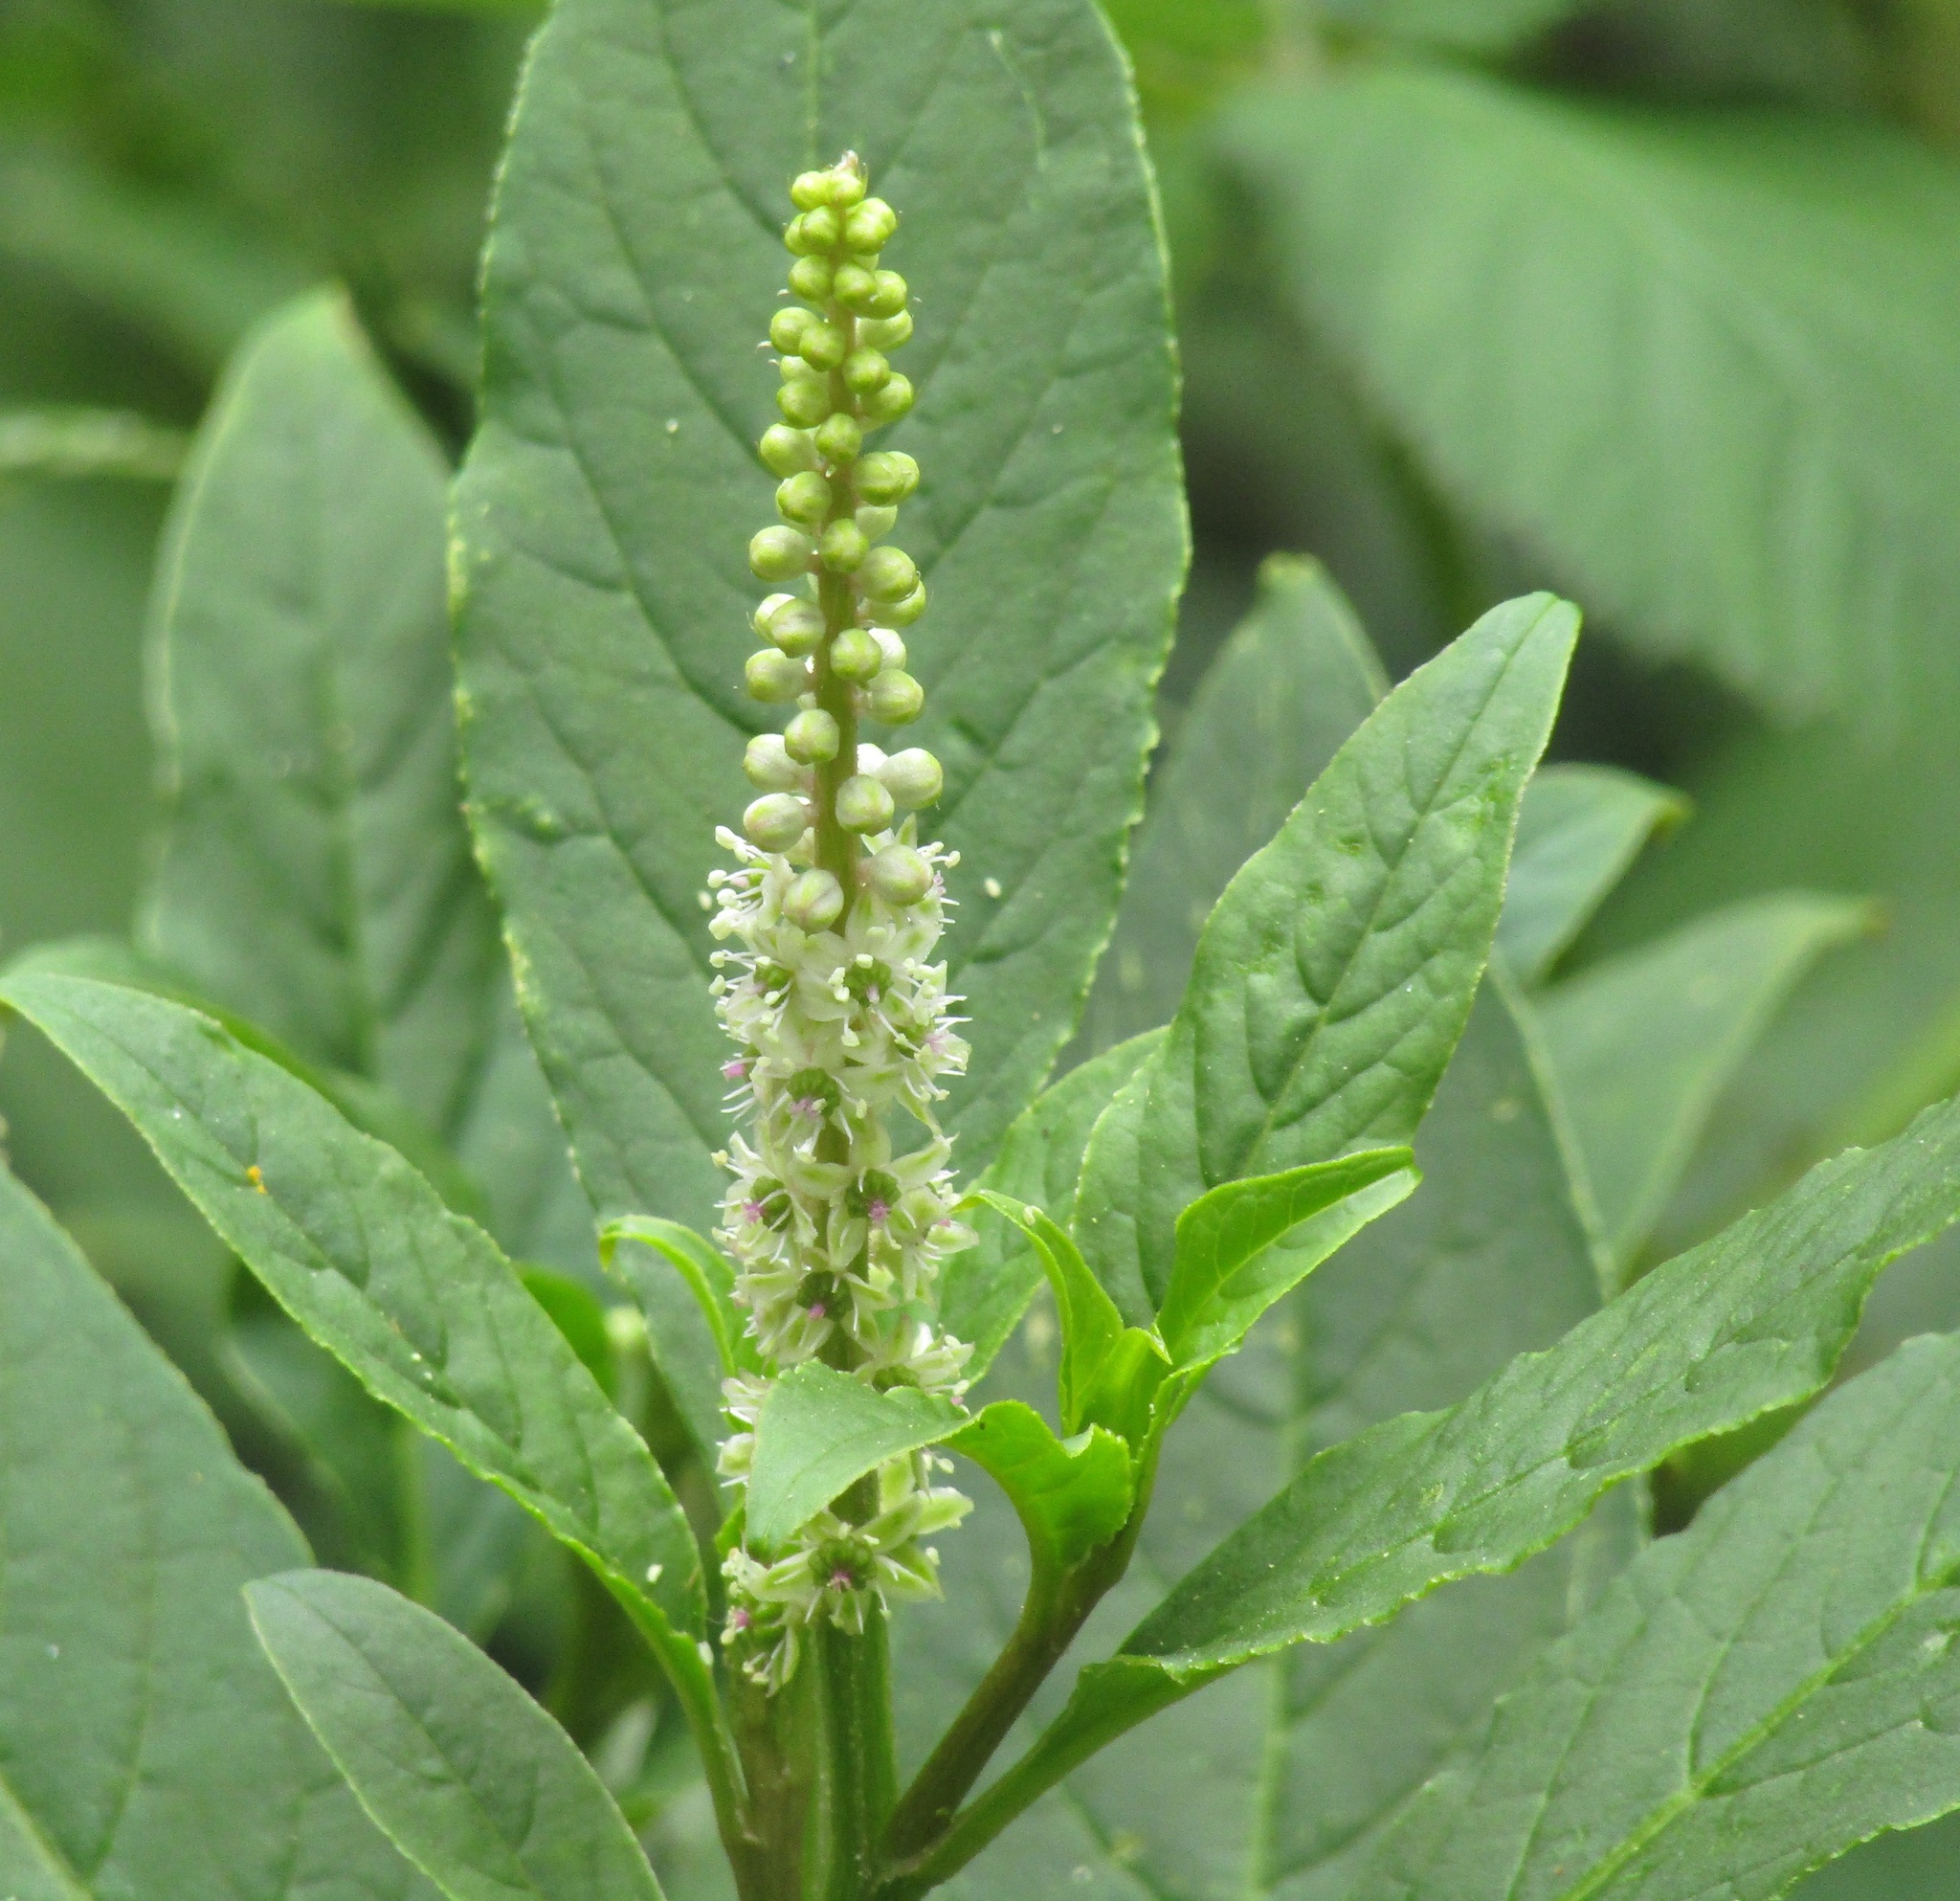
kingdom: Plantae
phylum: Tracheophyta
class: Magnoliopsida
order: Caryophyllales
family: Phytolaccaceae
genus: Phytolacca
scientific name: Phytolacca icosandra
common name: Button pokeweed
